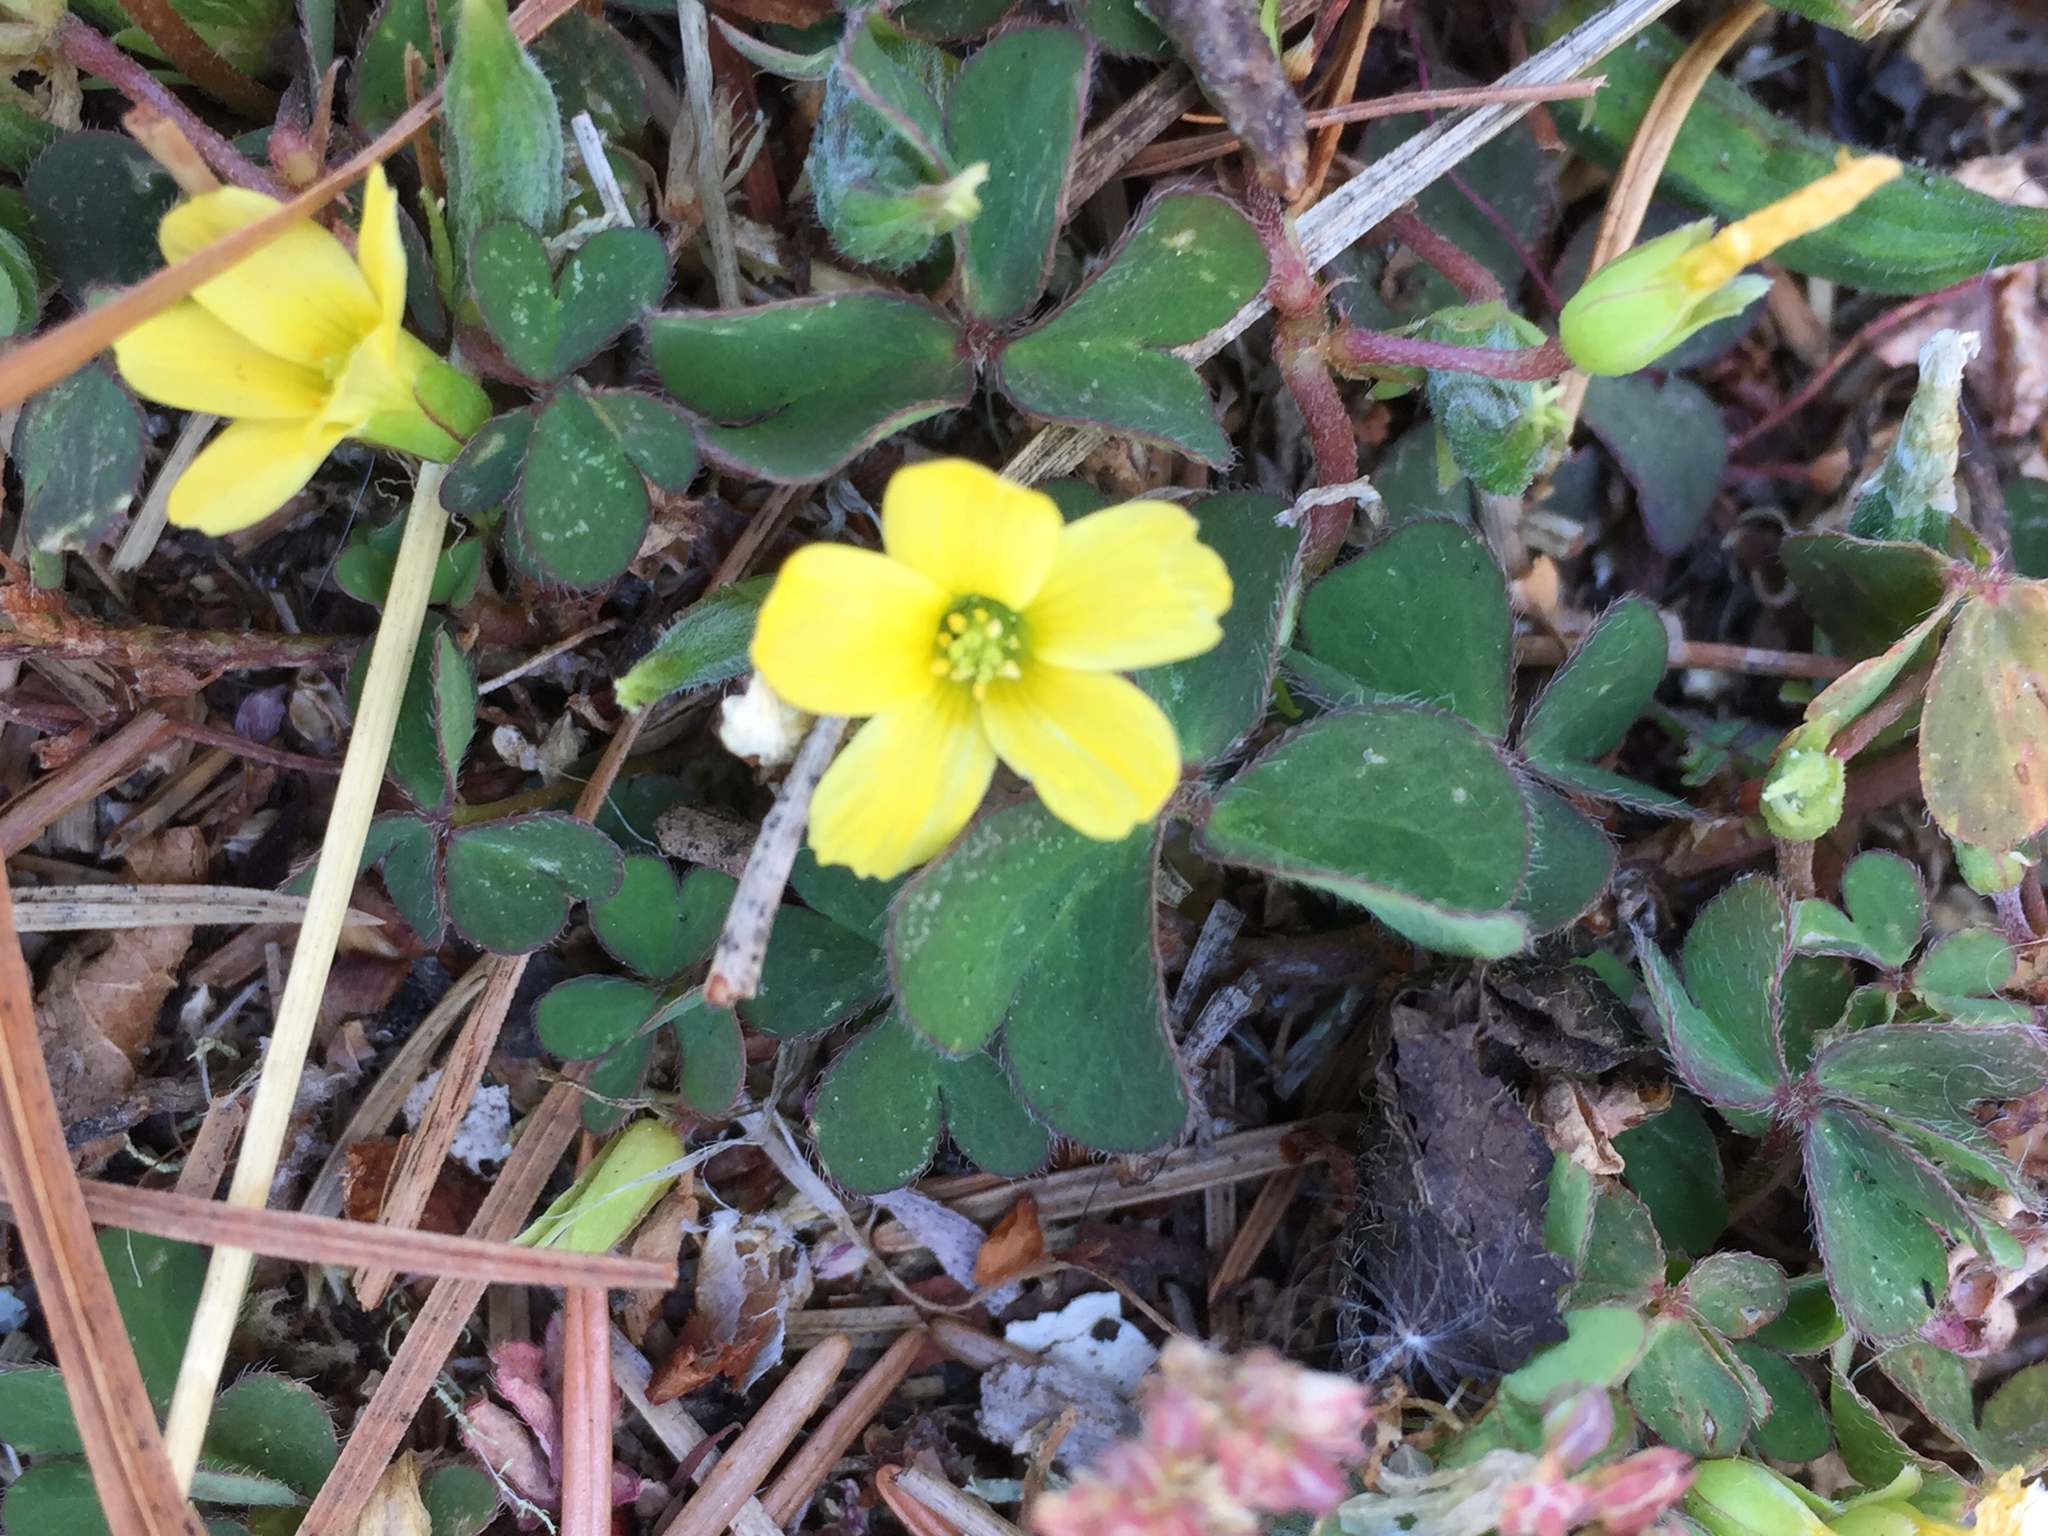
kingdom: Plantae
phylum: Tracheophyta
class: Magnoliopsida
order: Oxalidales
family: Oxalidaceae
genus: Oxalis
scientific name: Oxalis corniculata
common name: Procumbent yellow-sorrel
